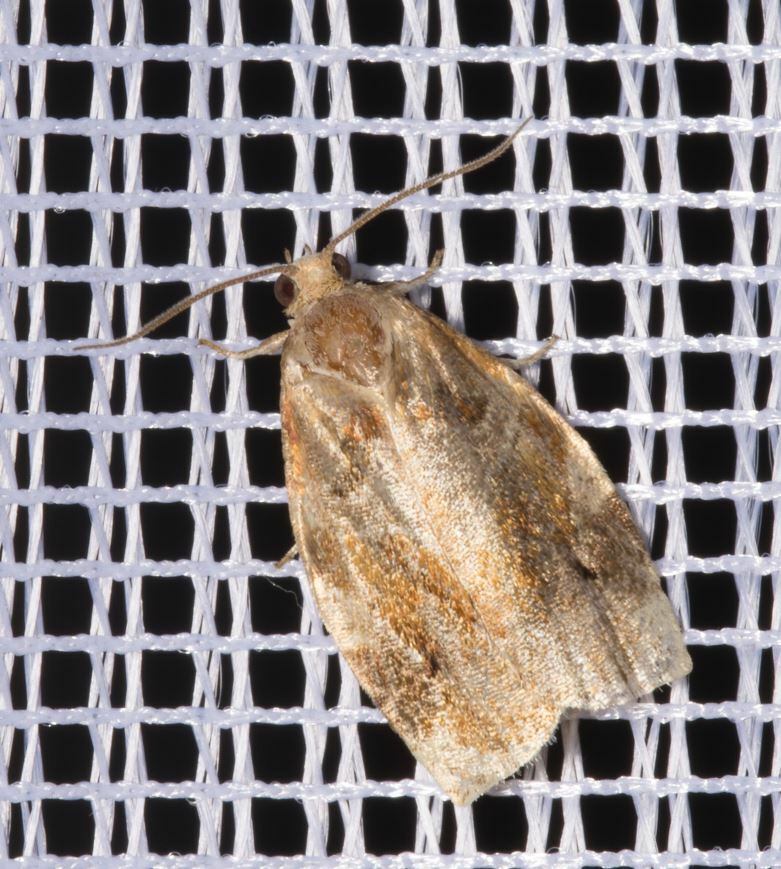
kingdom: Animalia
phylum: Arthropoda
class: Insecta
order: Lepidoptera
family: Tortricidae
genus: Archips
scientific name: Archips xylosteana
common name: Variegated golden tortrix
